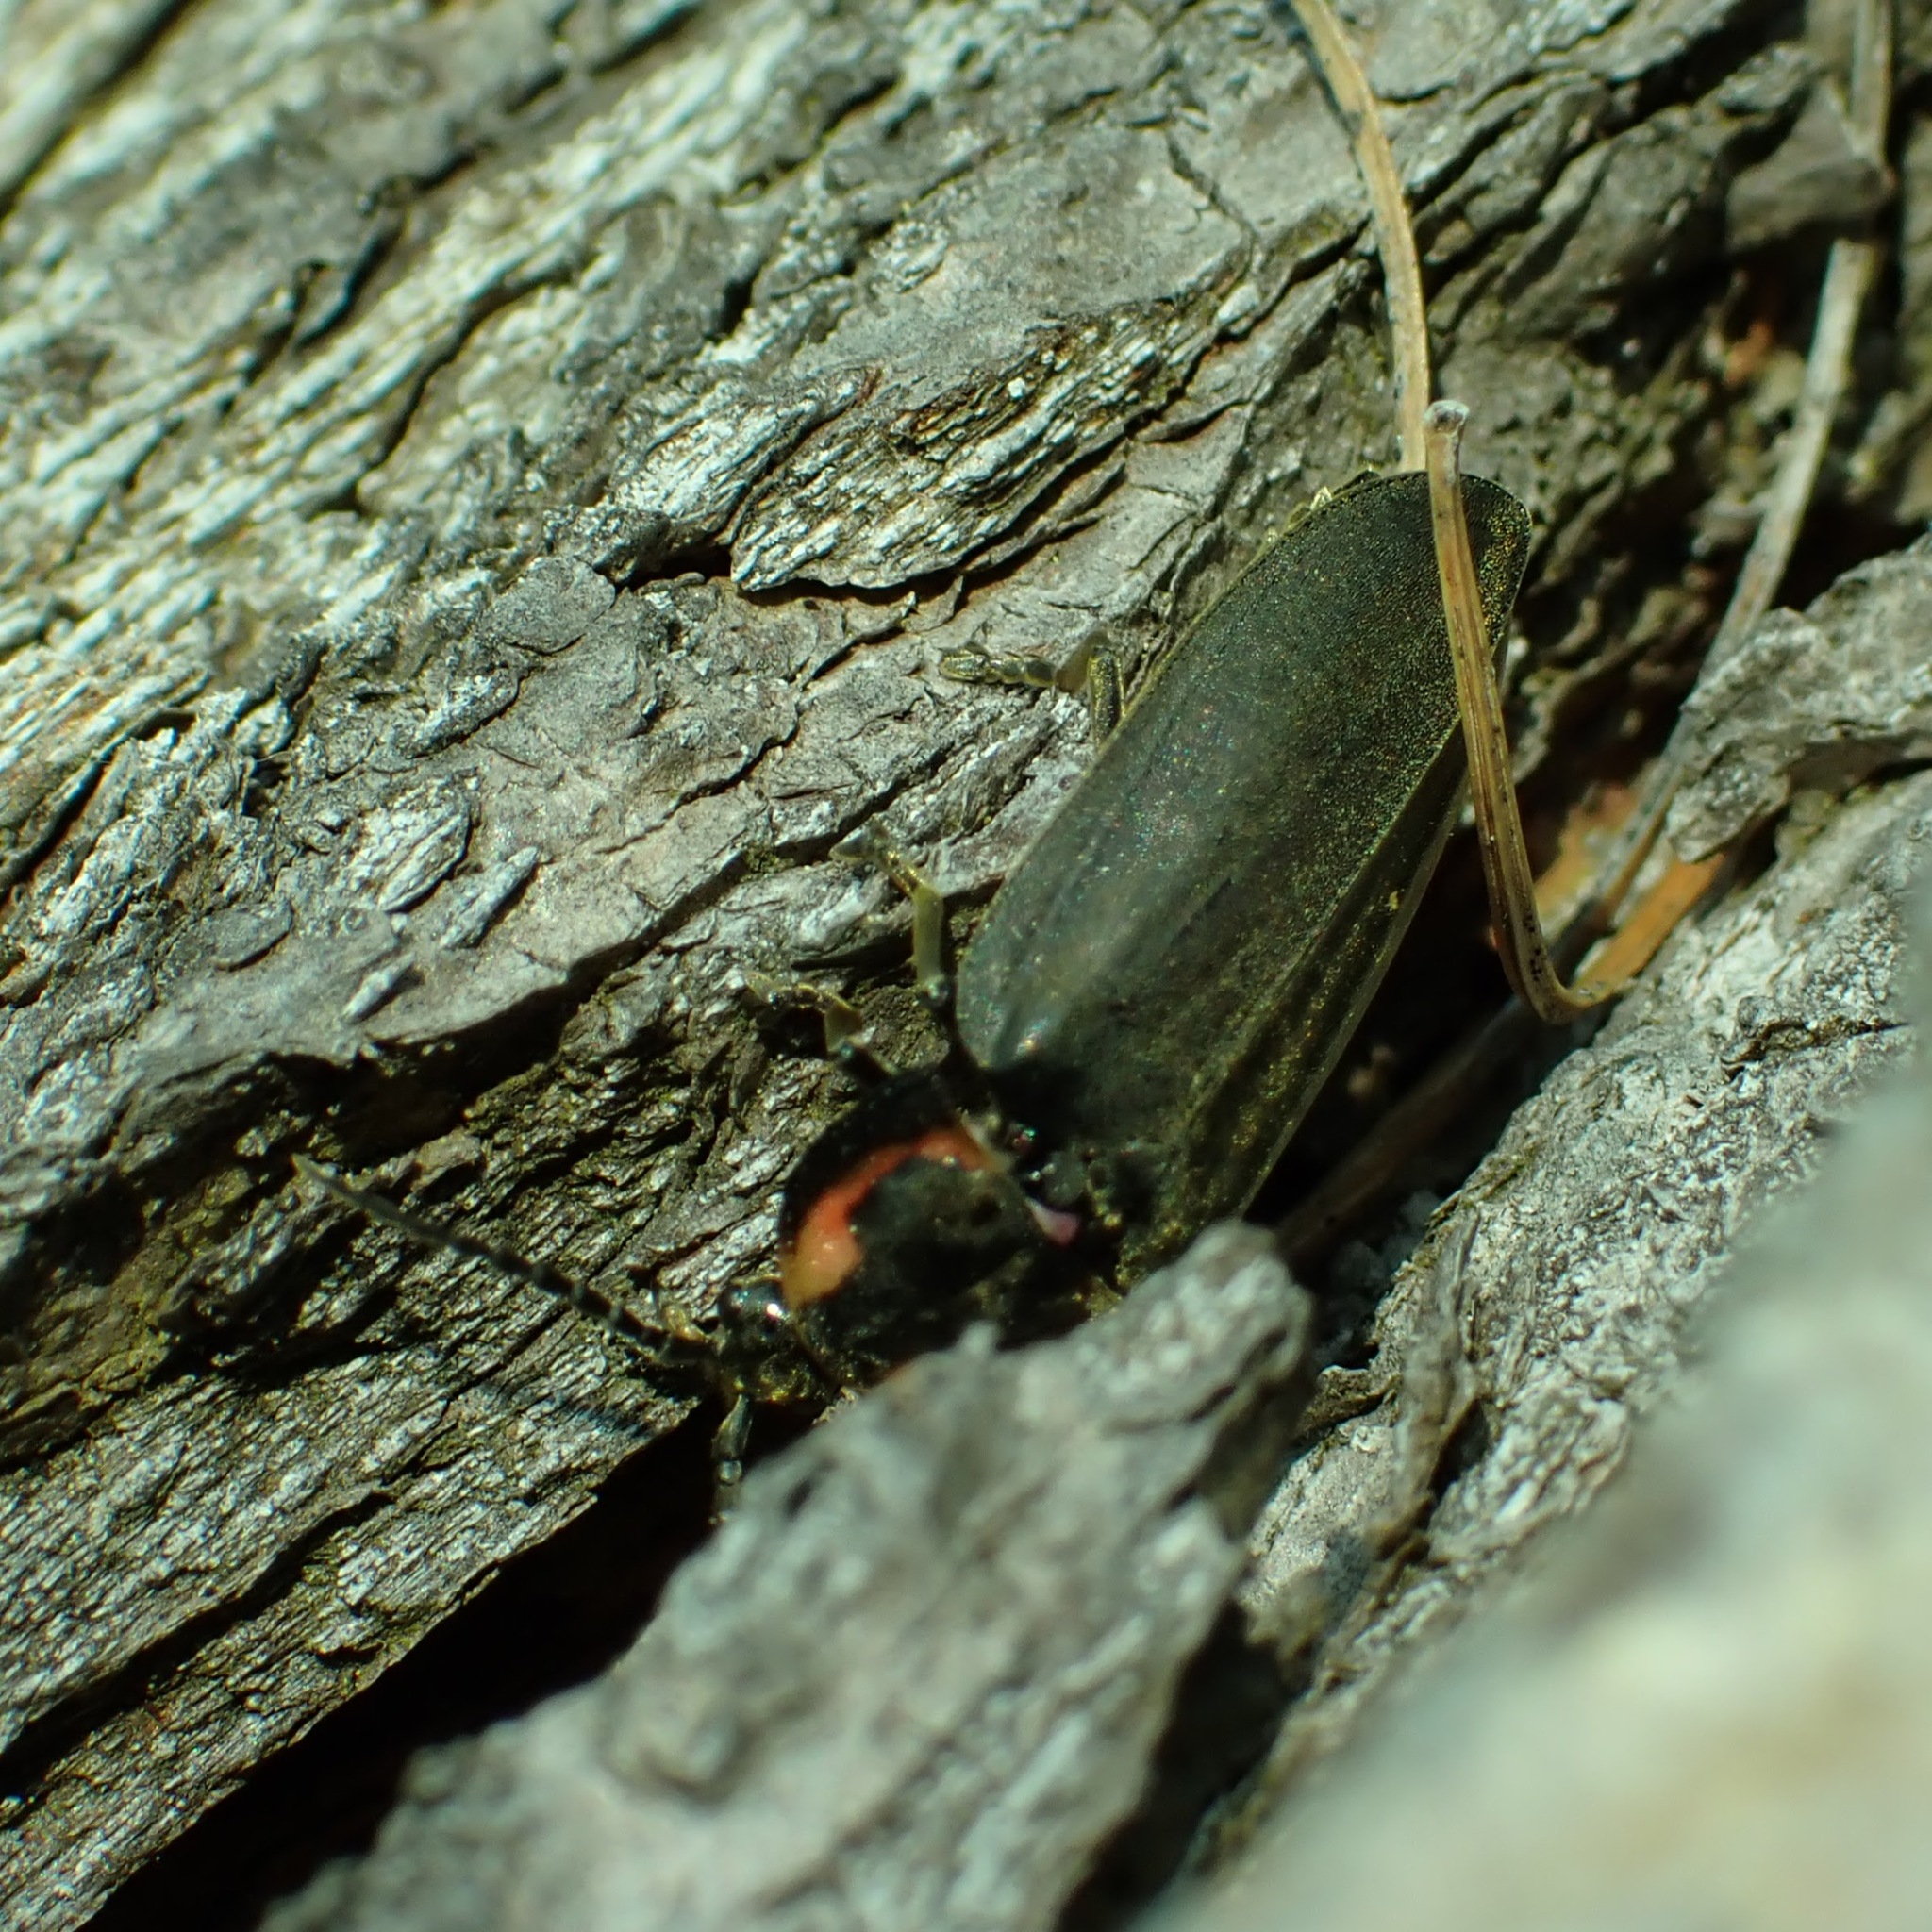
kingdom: Animalia
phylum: Arthropoda
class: Insecta
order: Coleoptera
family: Lampyridae
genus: Photinus
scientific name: Photinus corrusca
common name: Winter firefly
